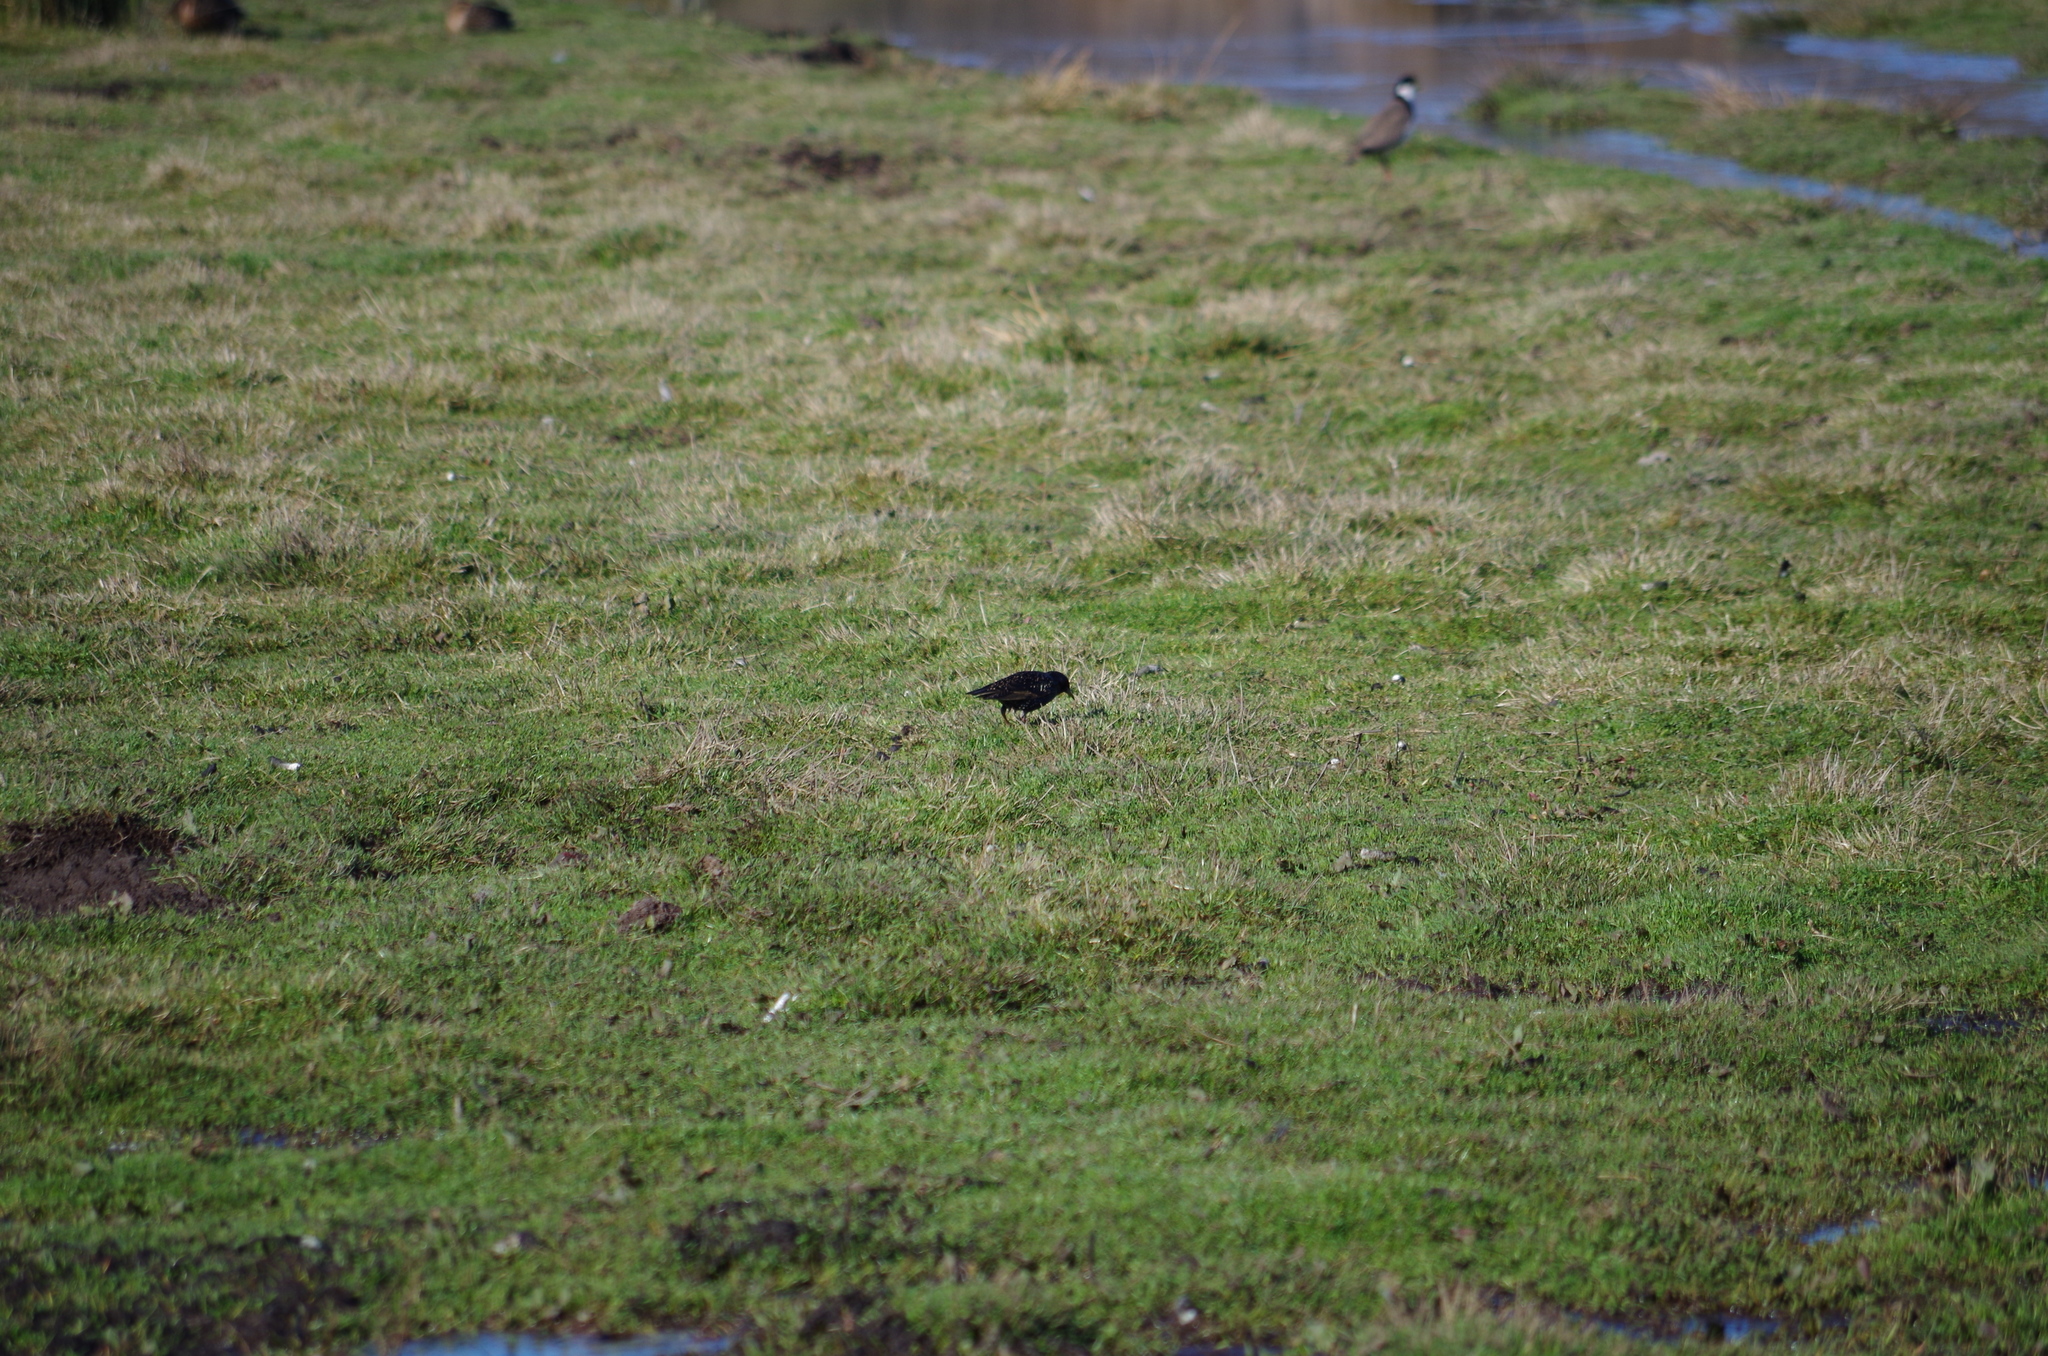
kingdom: Animalia
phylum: Chordata
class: Aves
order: Passeriformes
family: Sturnidae
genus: Sturnus
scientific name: Sturnus vulgaris
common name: Common starling
